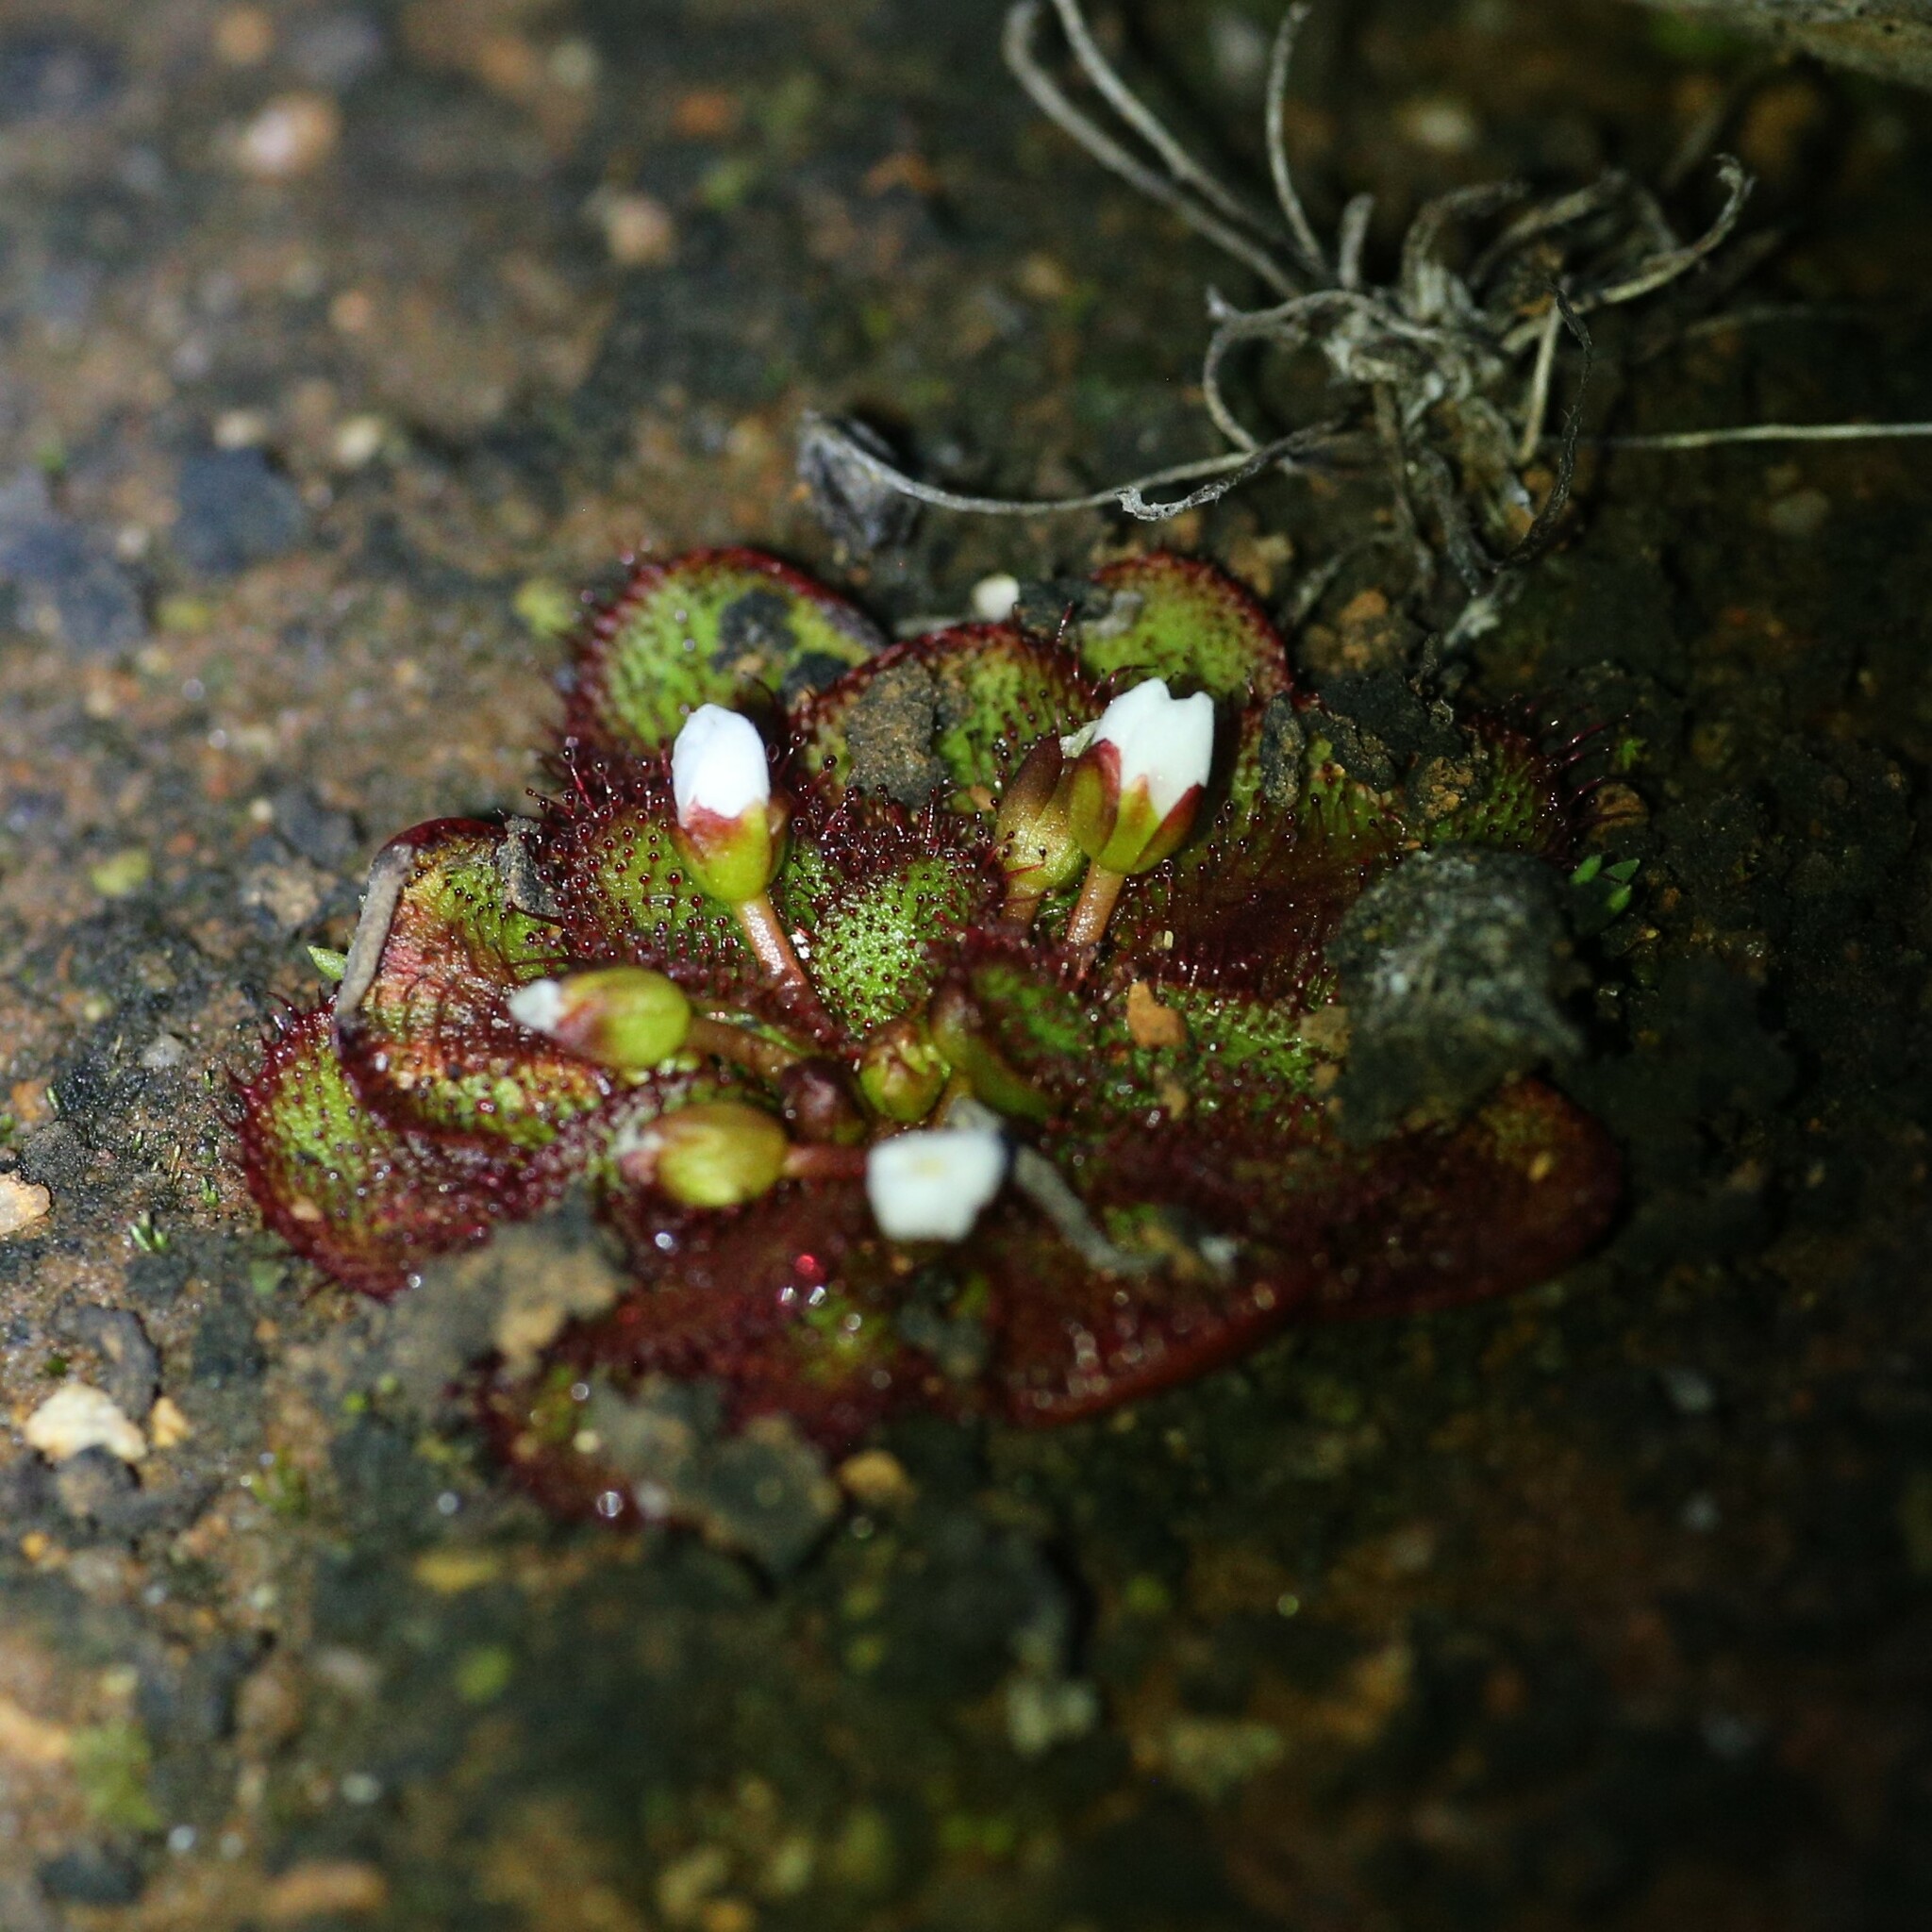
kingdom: Plantae
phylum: Tracheophyta
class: Magnoliopsida
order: Caryophyllales
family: Droseraceae
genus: Drosera
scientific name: Drosera lowriei
